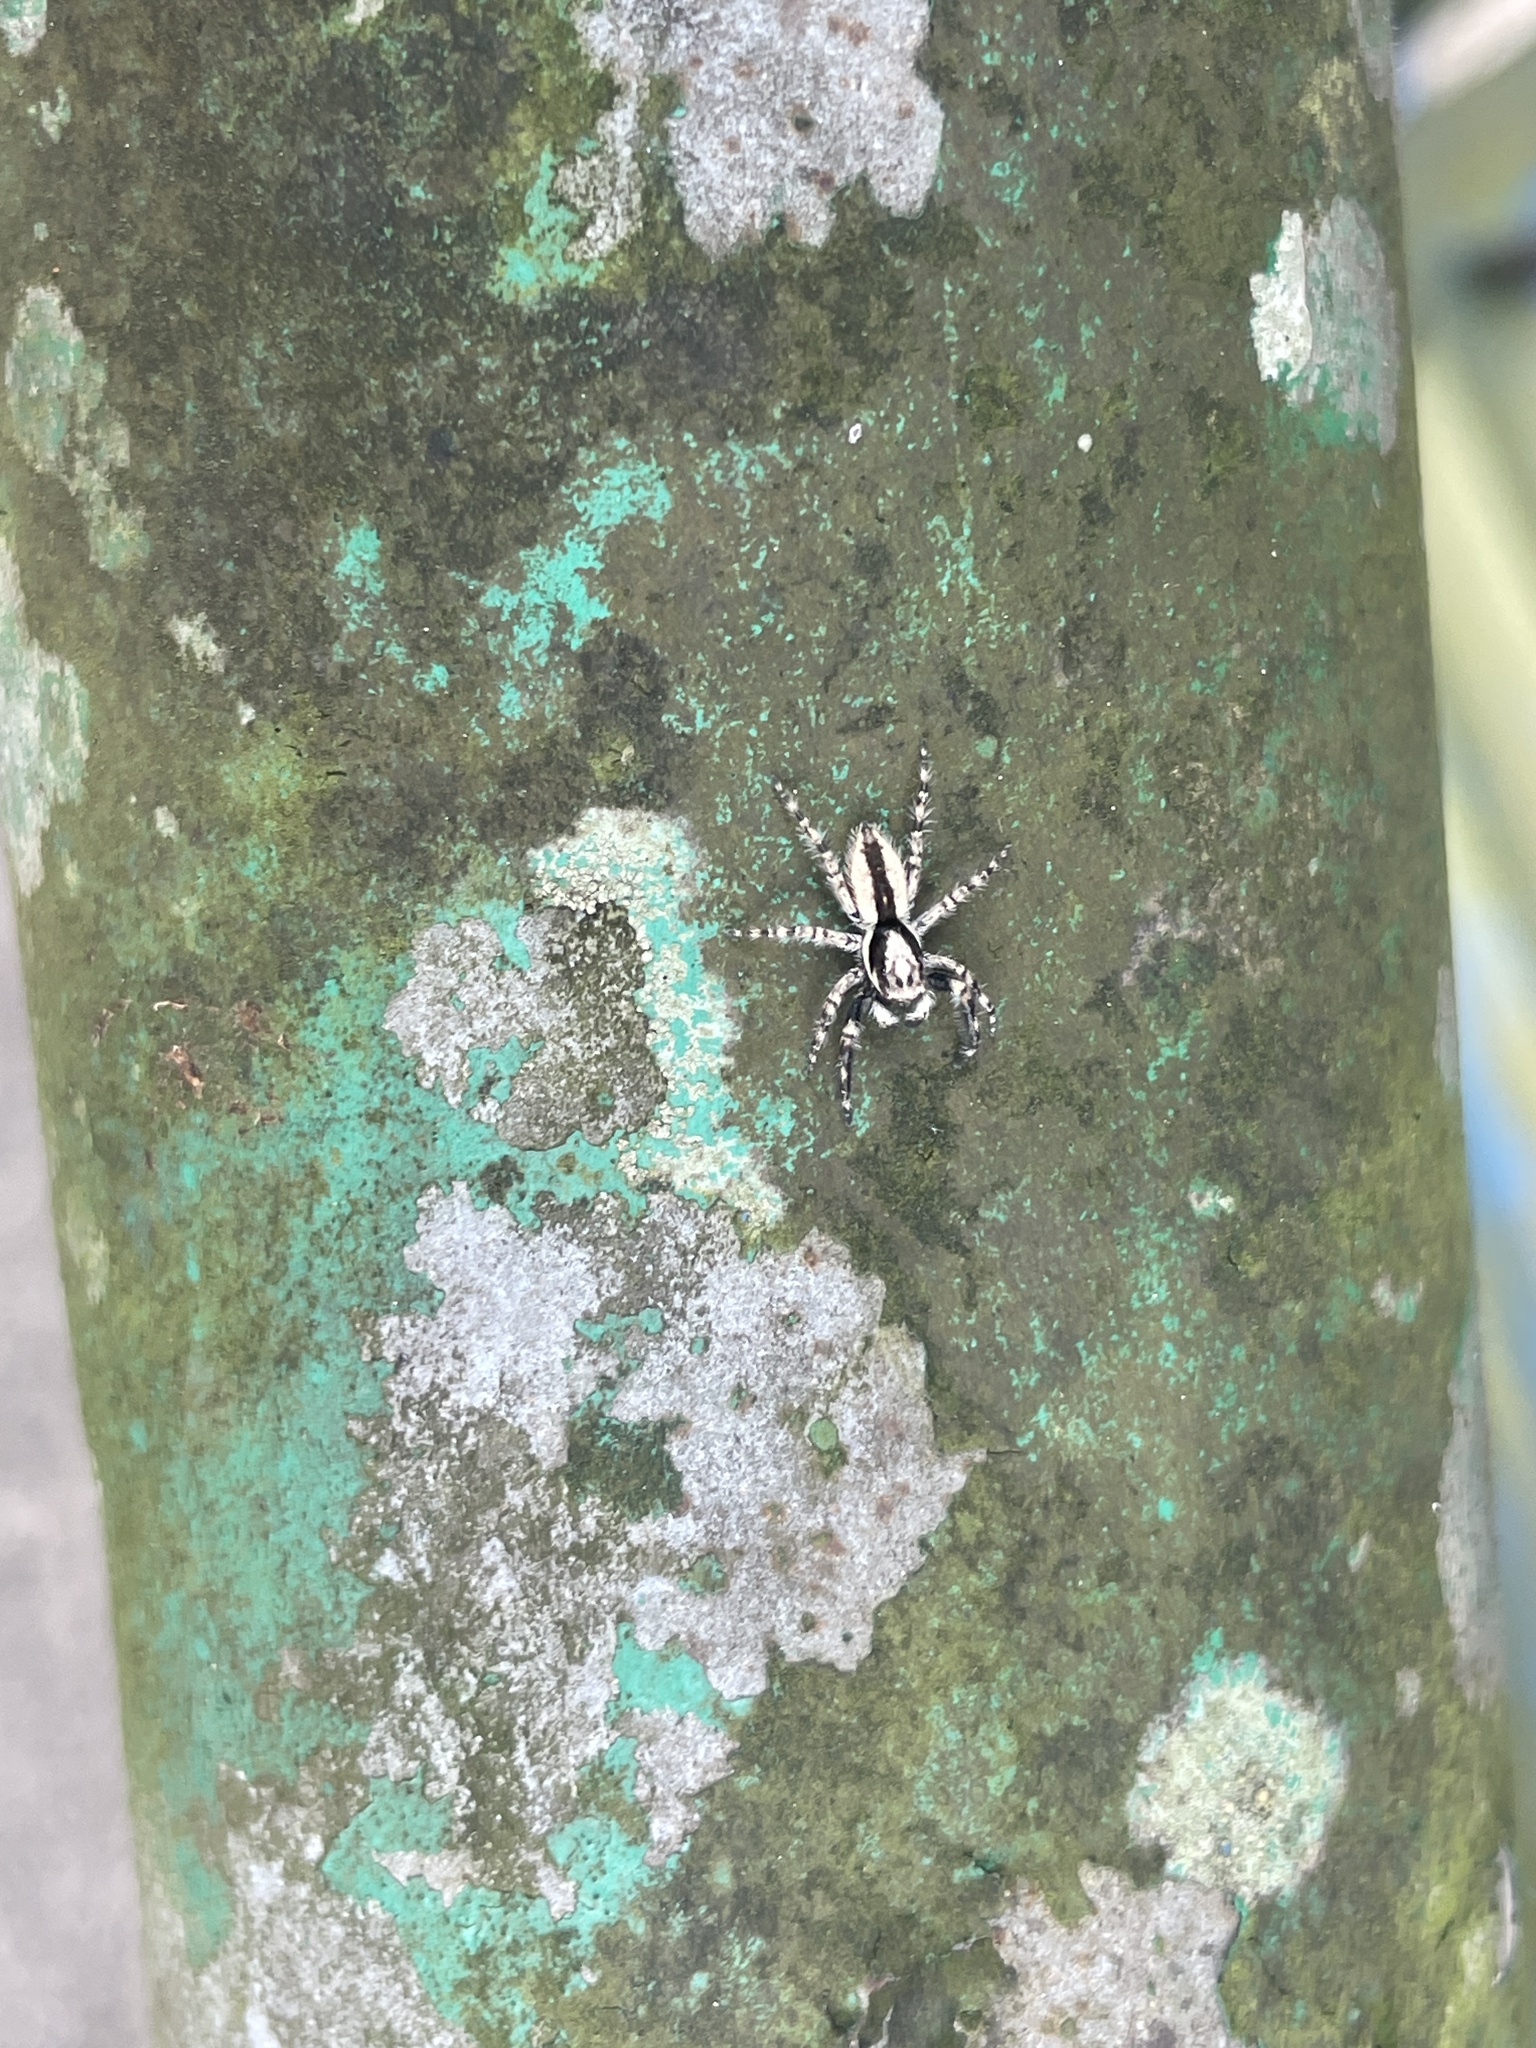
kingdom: Animalia
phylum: Arthropoda
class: Arachnida
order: Araneae
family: Salticidae
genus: Menemerus
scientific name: Menemerus bivittatus
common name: Gray wall jumper
